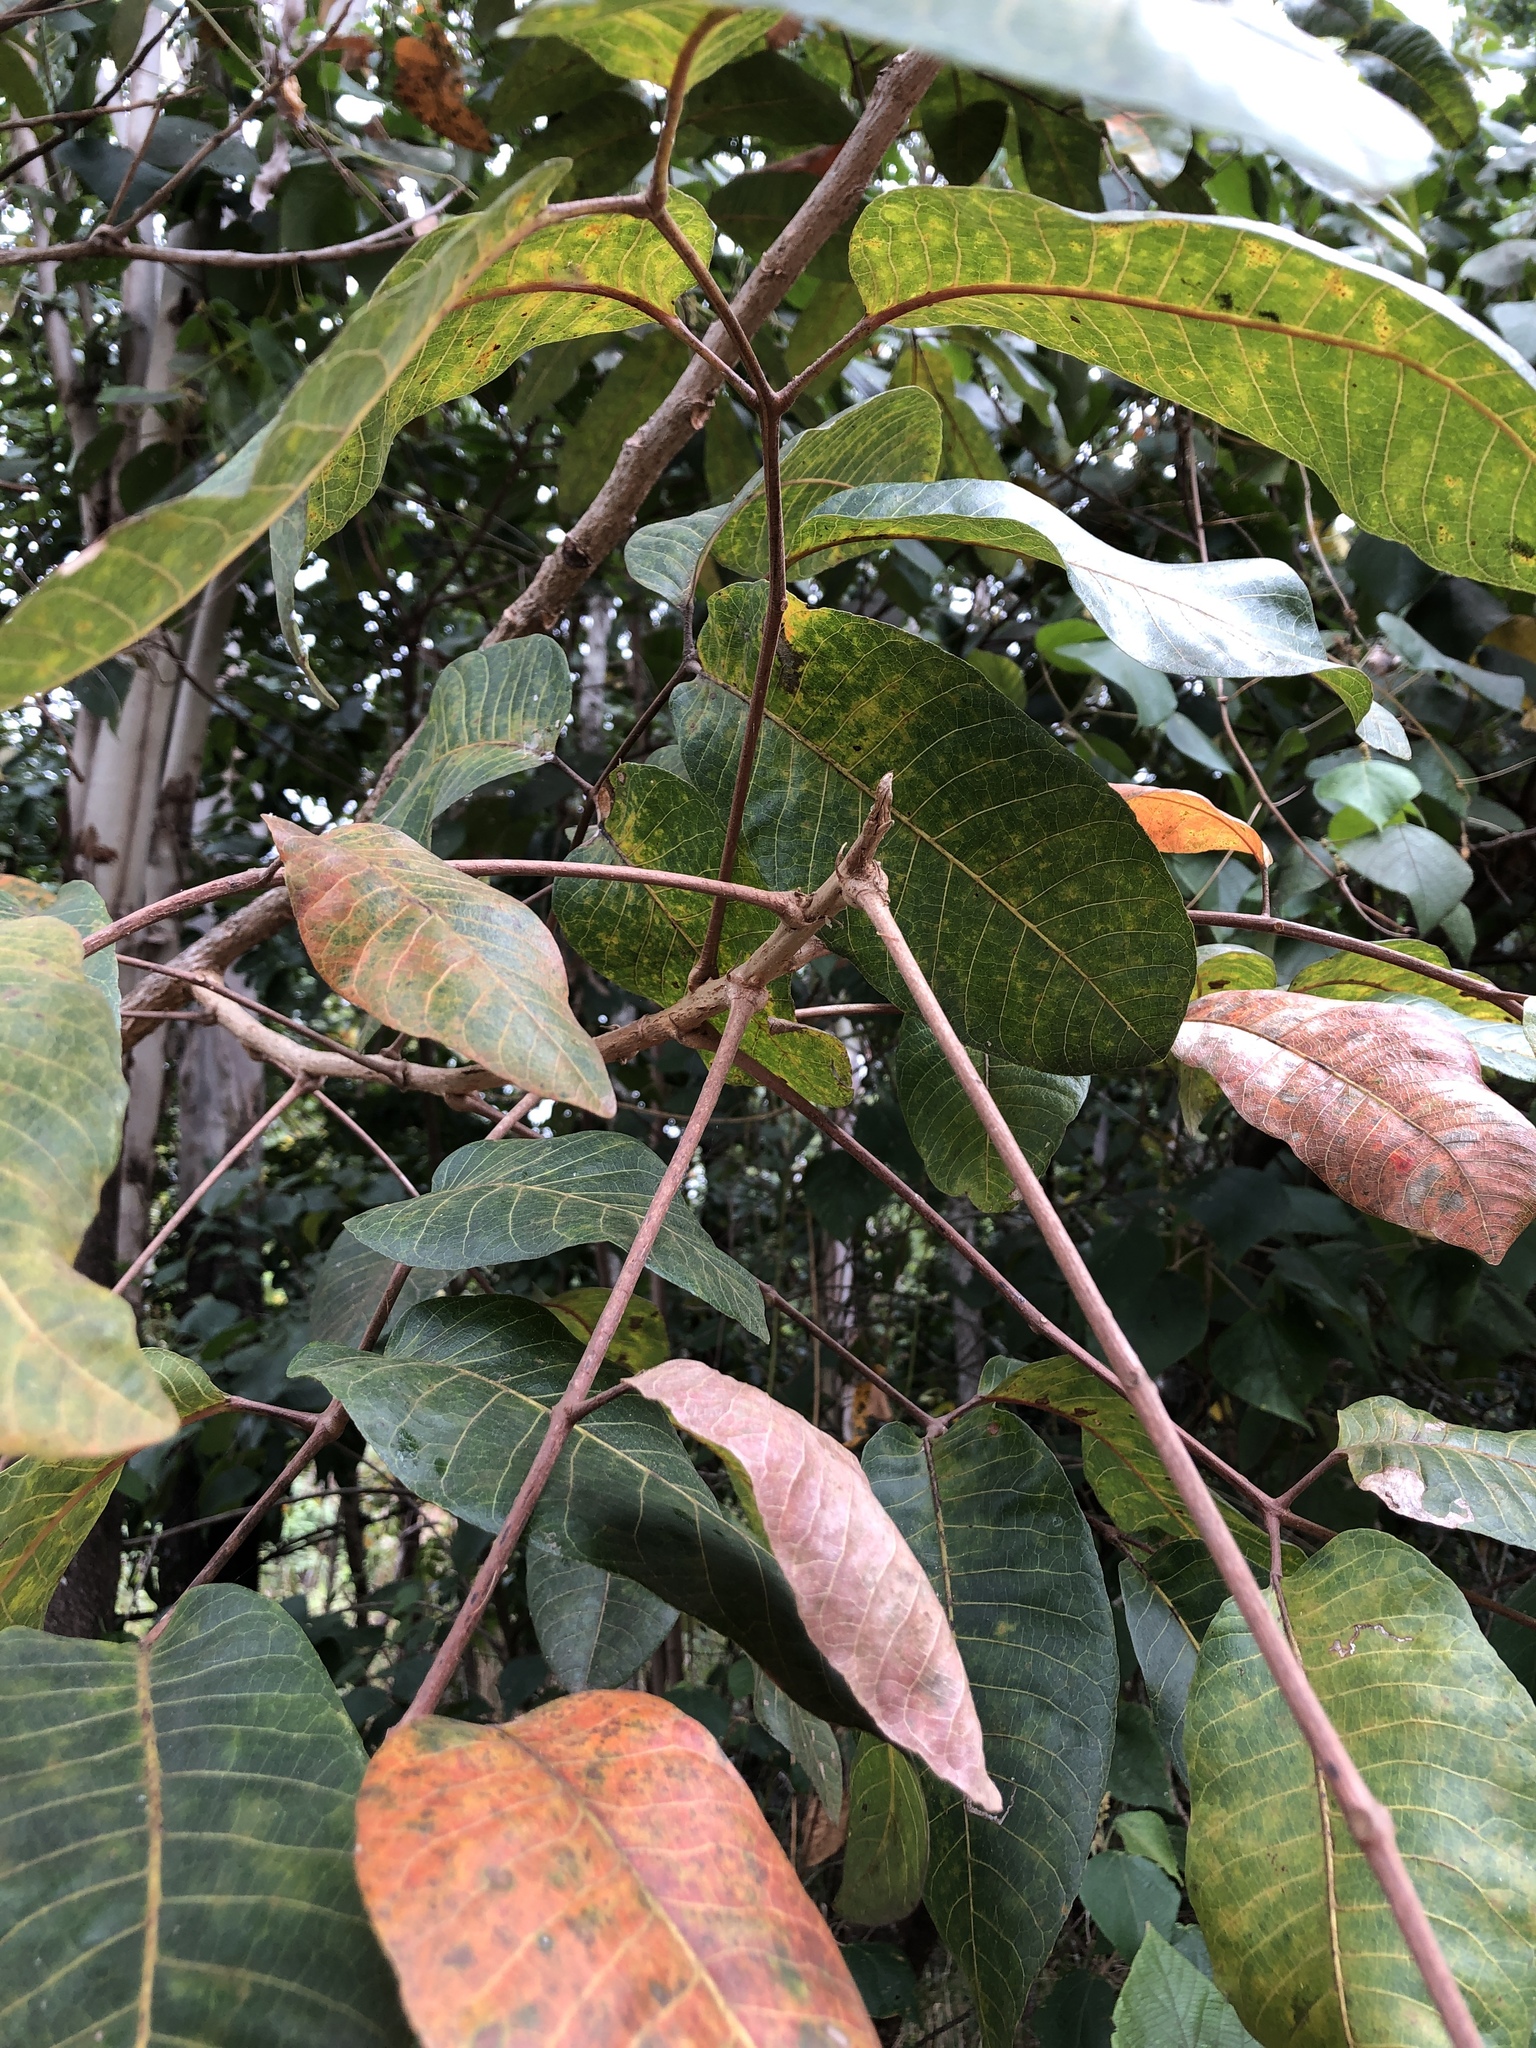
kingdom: Plantae
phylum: Tracheophyta
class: Magnoliopsida
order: Sapindales
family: Burseraceae
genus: Canarium
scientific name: Canarium australianum
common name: Island white-beech
